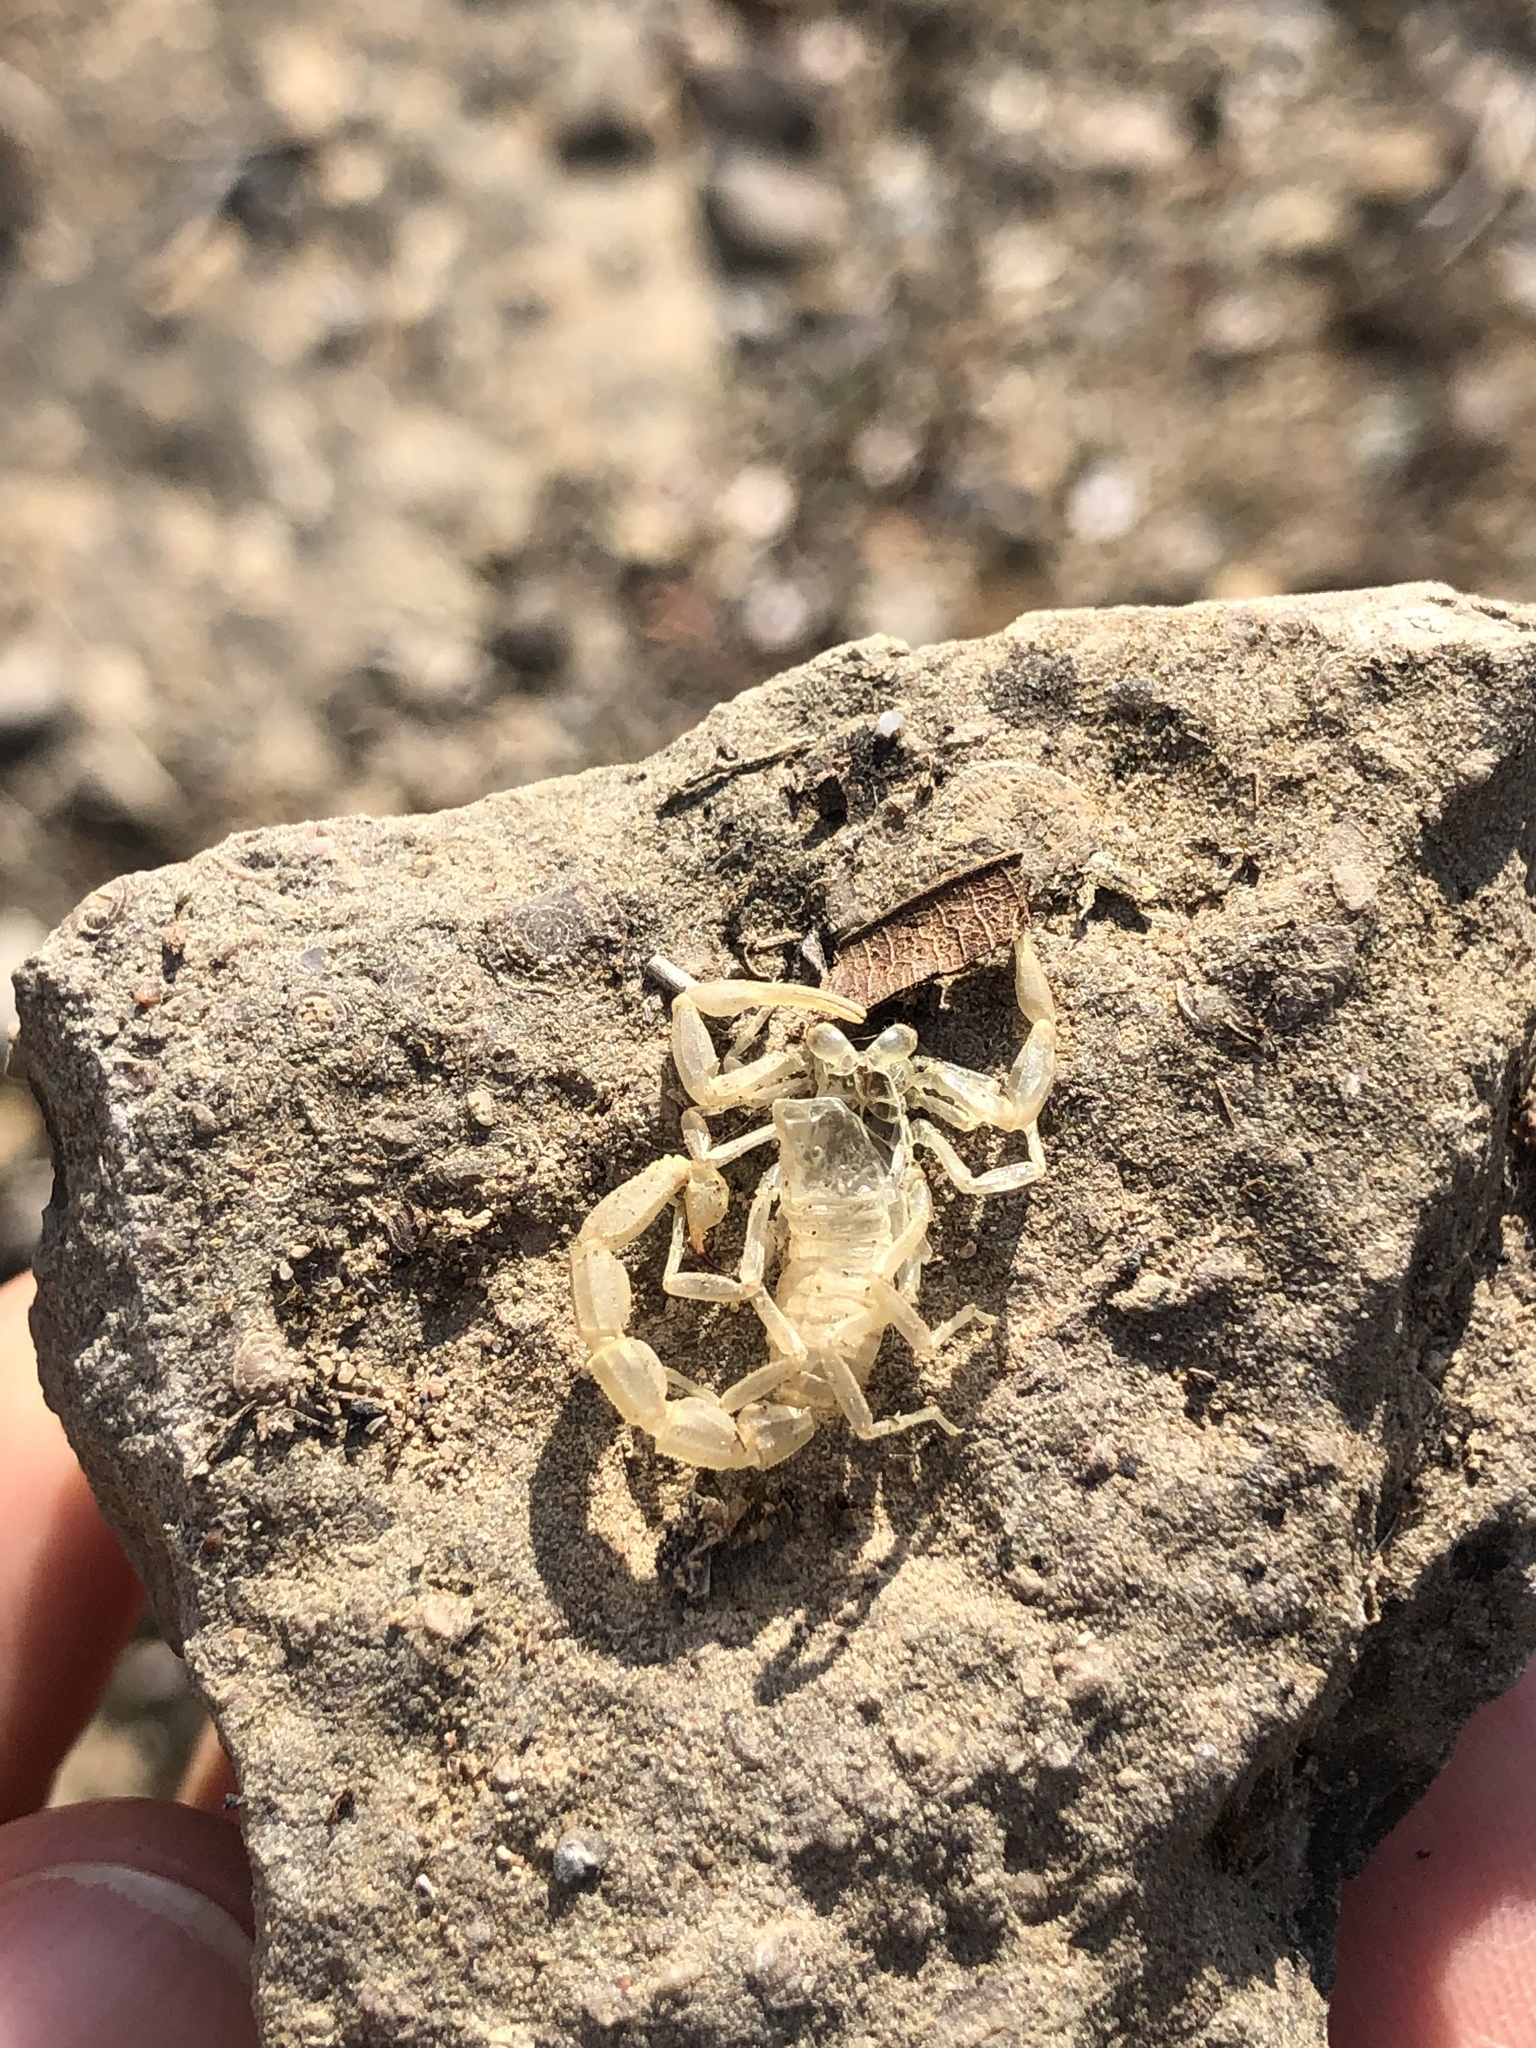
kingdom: Animalia
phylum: Arthropoda
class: Arachnida
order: Scorpiones
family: Buthidae
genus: Buthus
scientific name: Buthus occitanus
